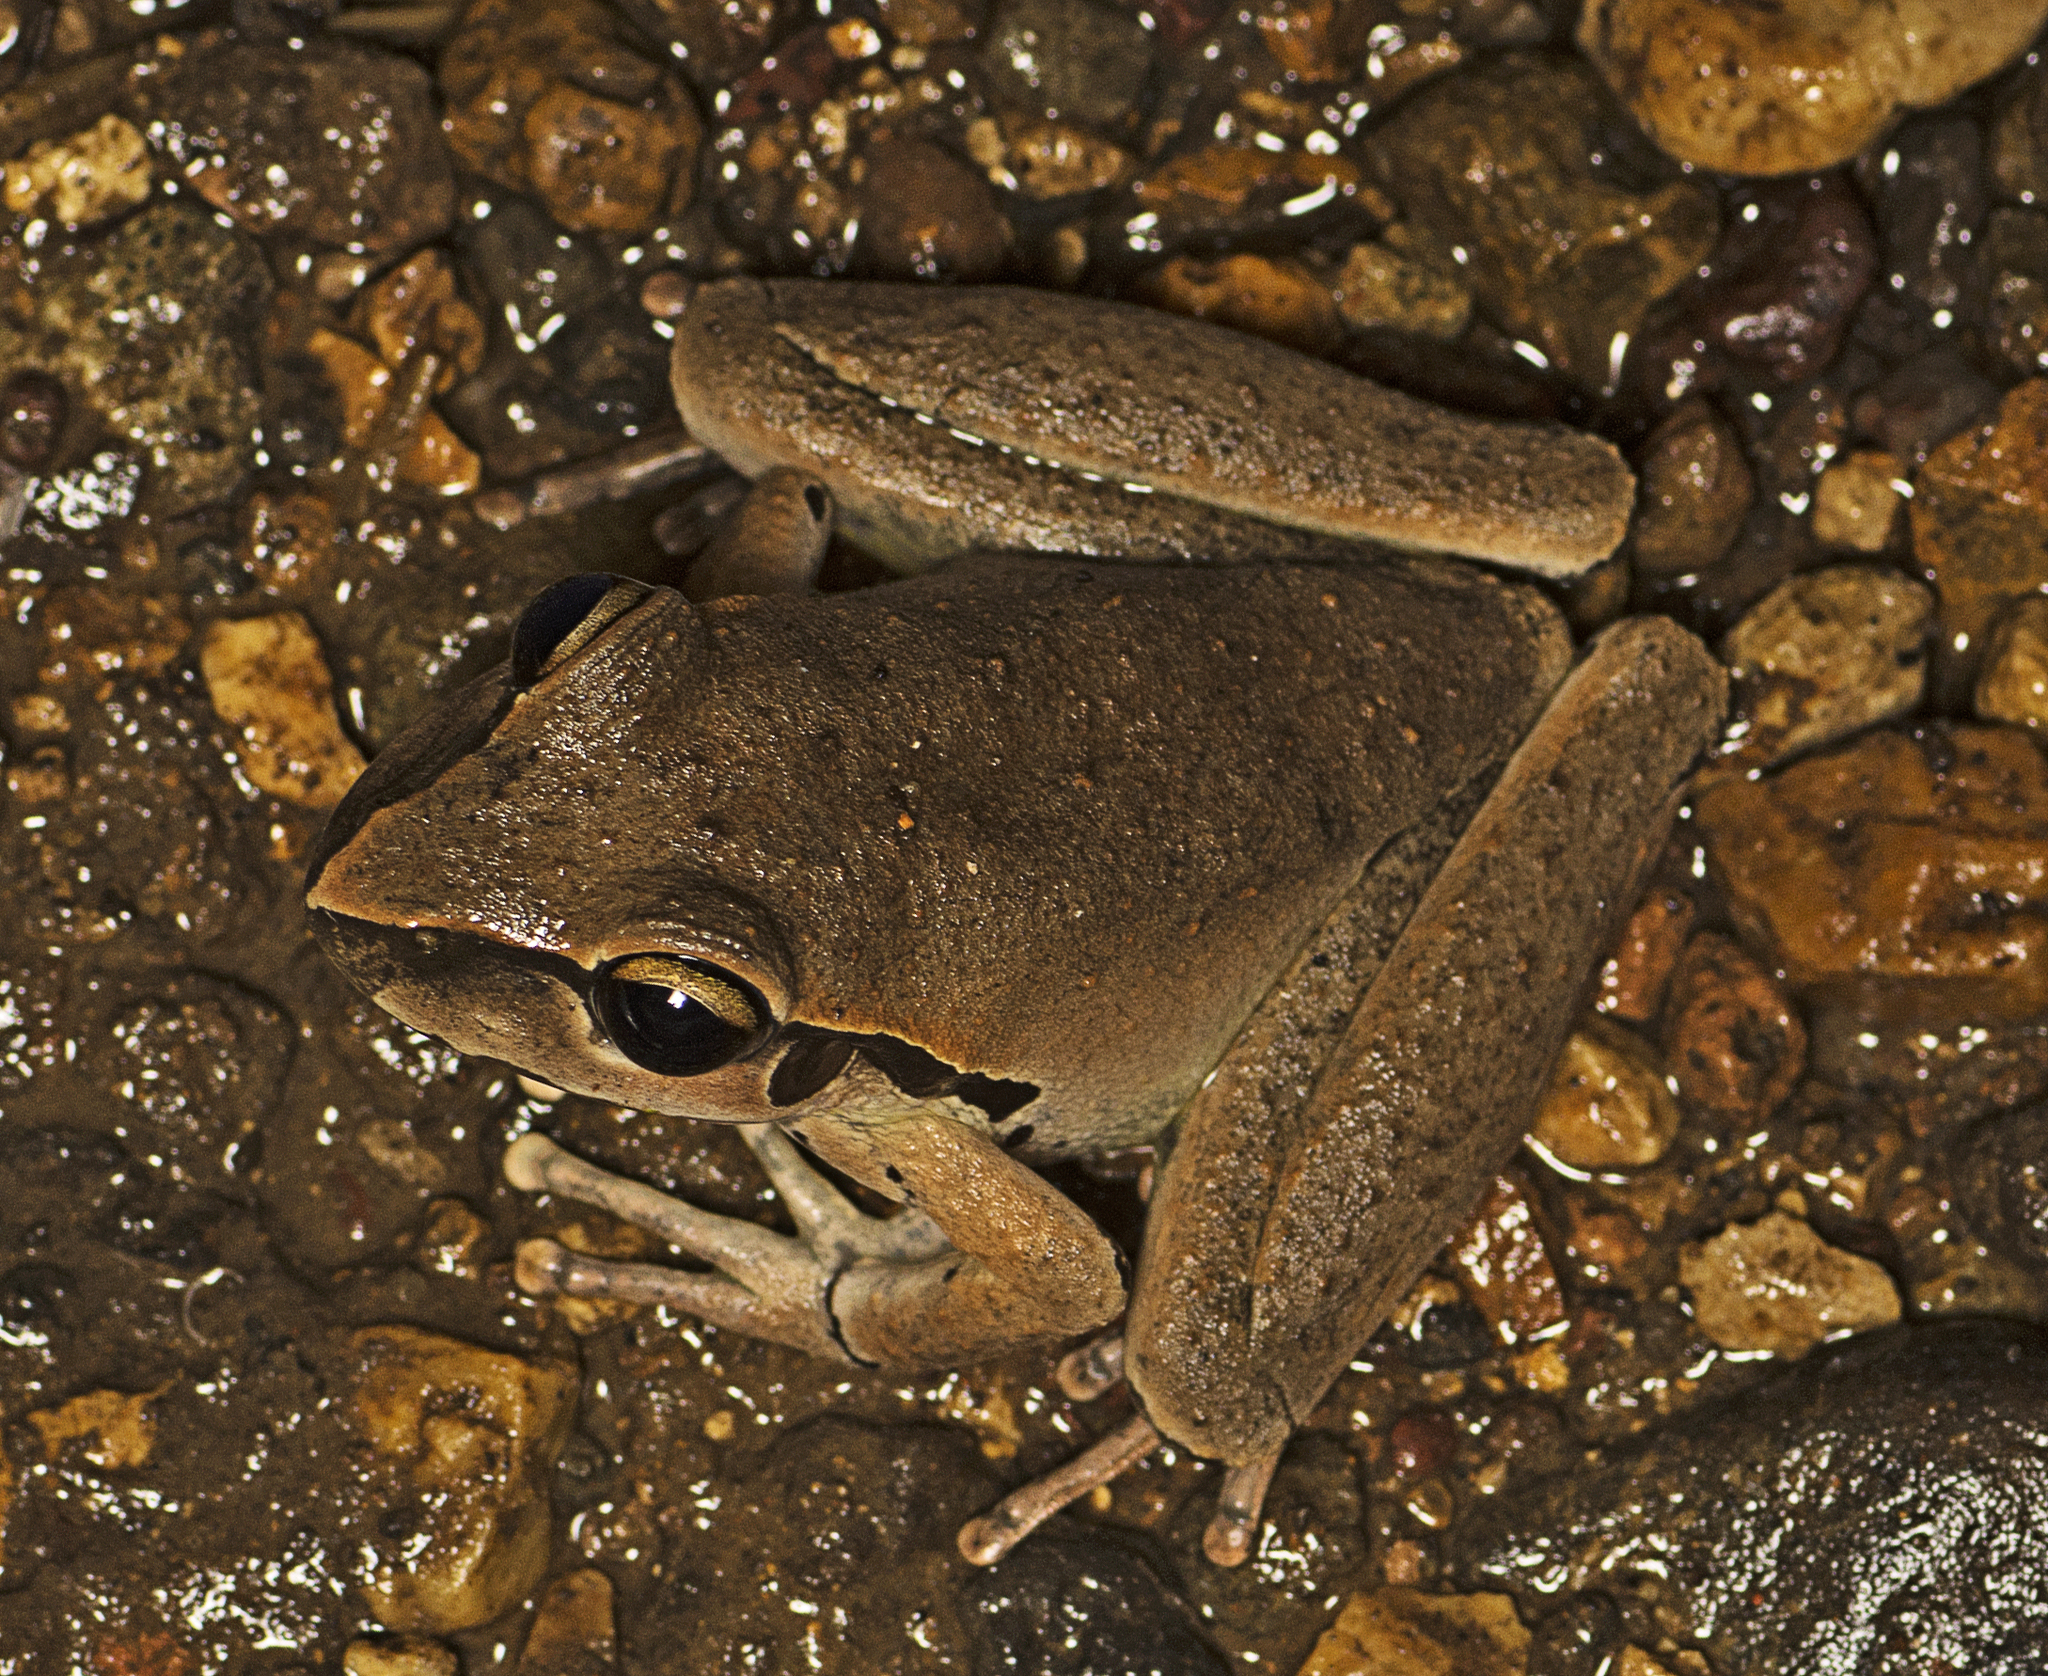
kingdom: Animalia
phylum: Chordata
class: Amphibia
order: Anura
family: Pelodryadidae
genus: Ranoidea
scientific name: Ranoidea wilcoxii
